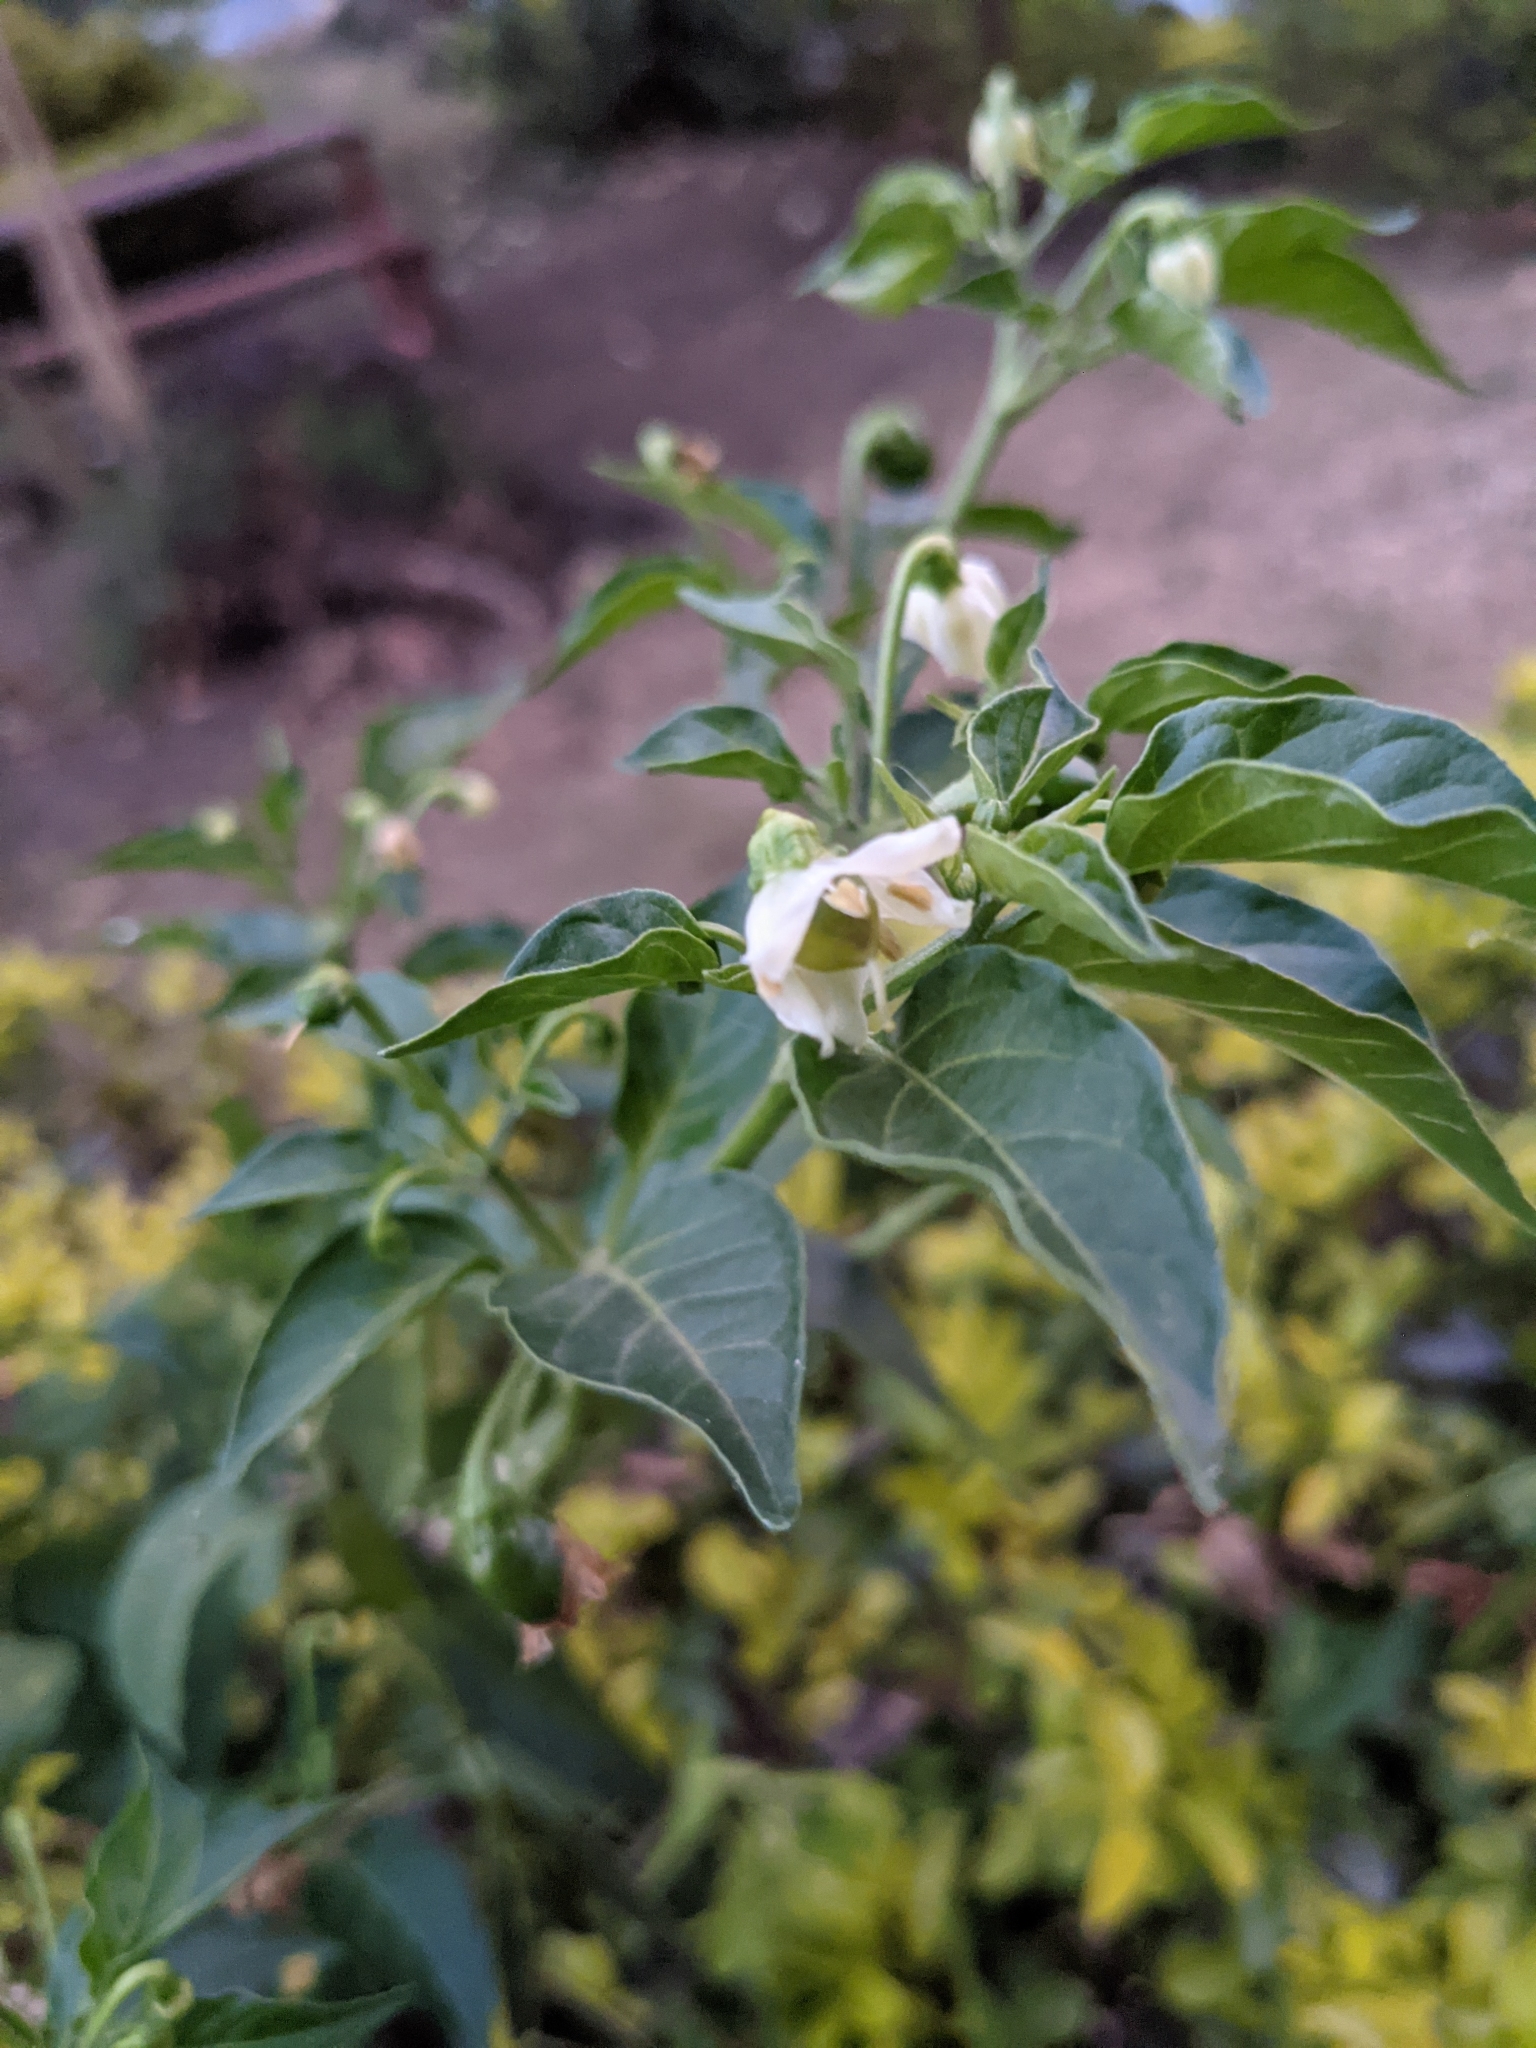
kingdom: Plantae
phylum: Tracheophyta
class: Magnoliopsida
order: Solanales
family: Solanaceae
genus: Capsicum
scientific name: Capsicum annuum
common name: Sweet pepper
